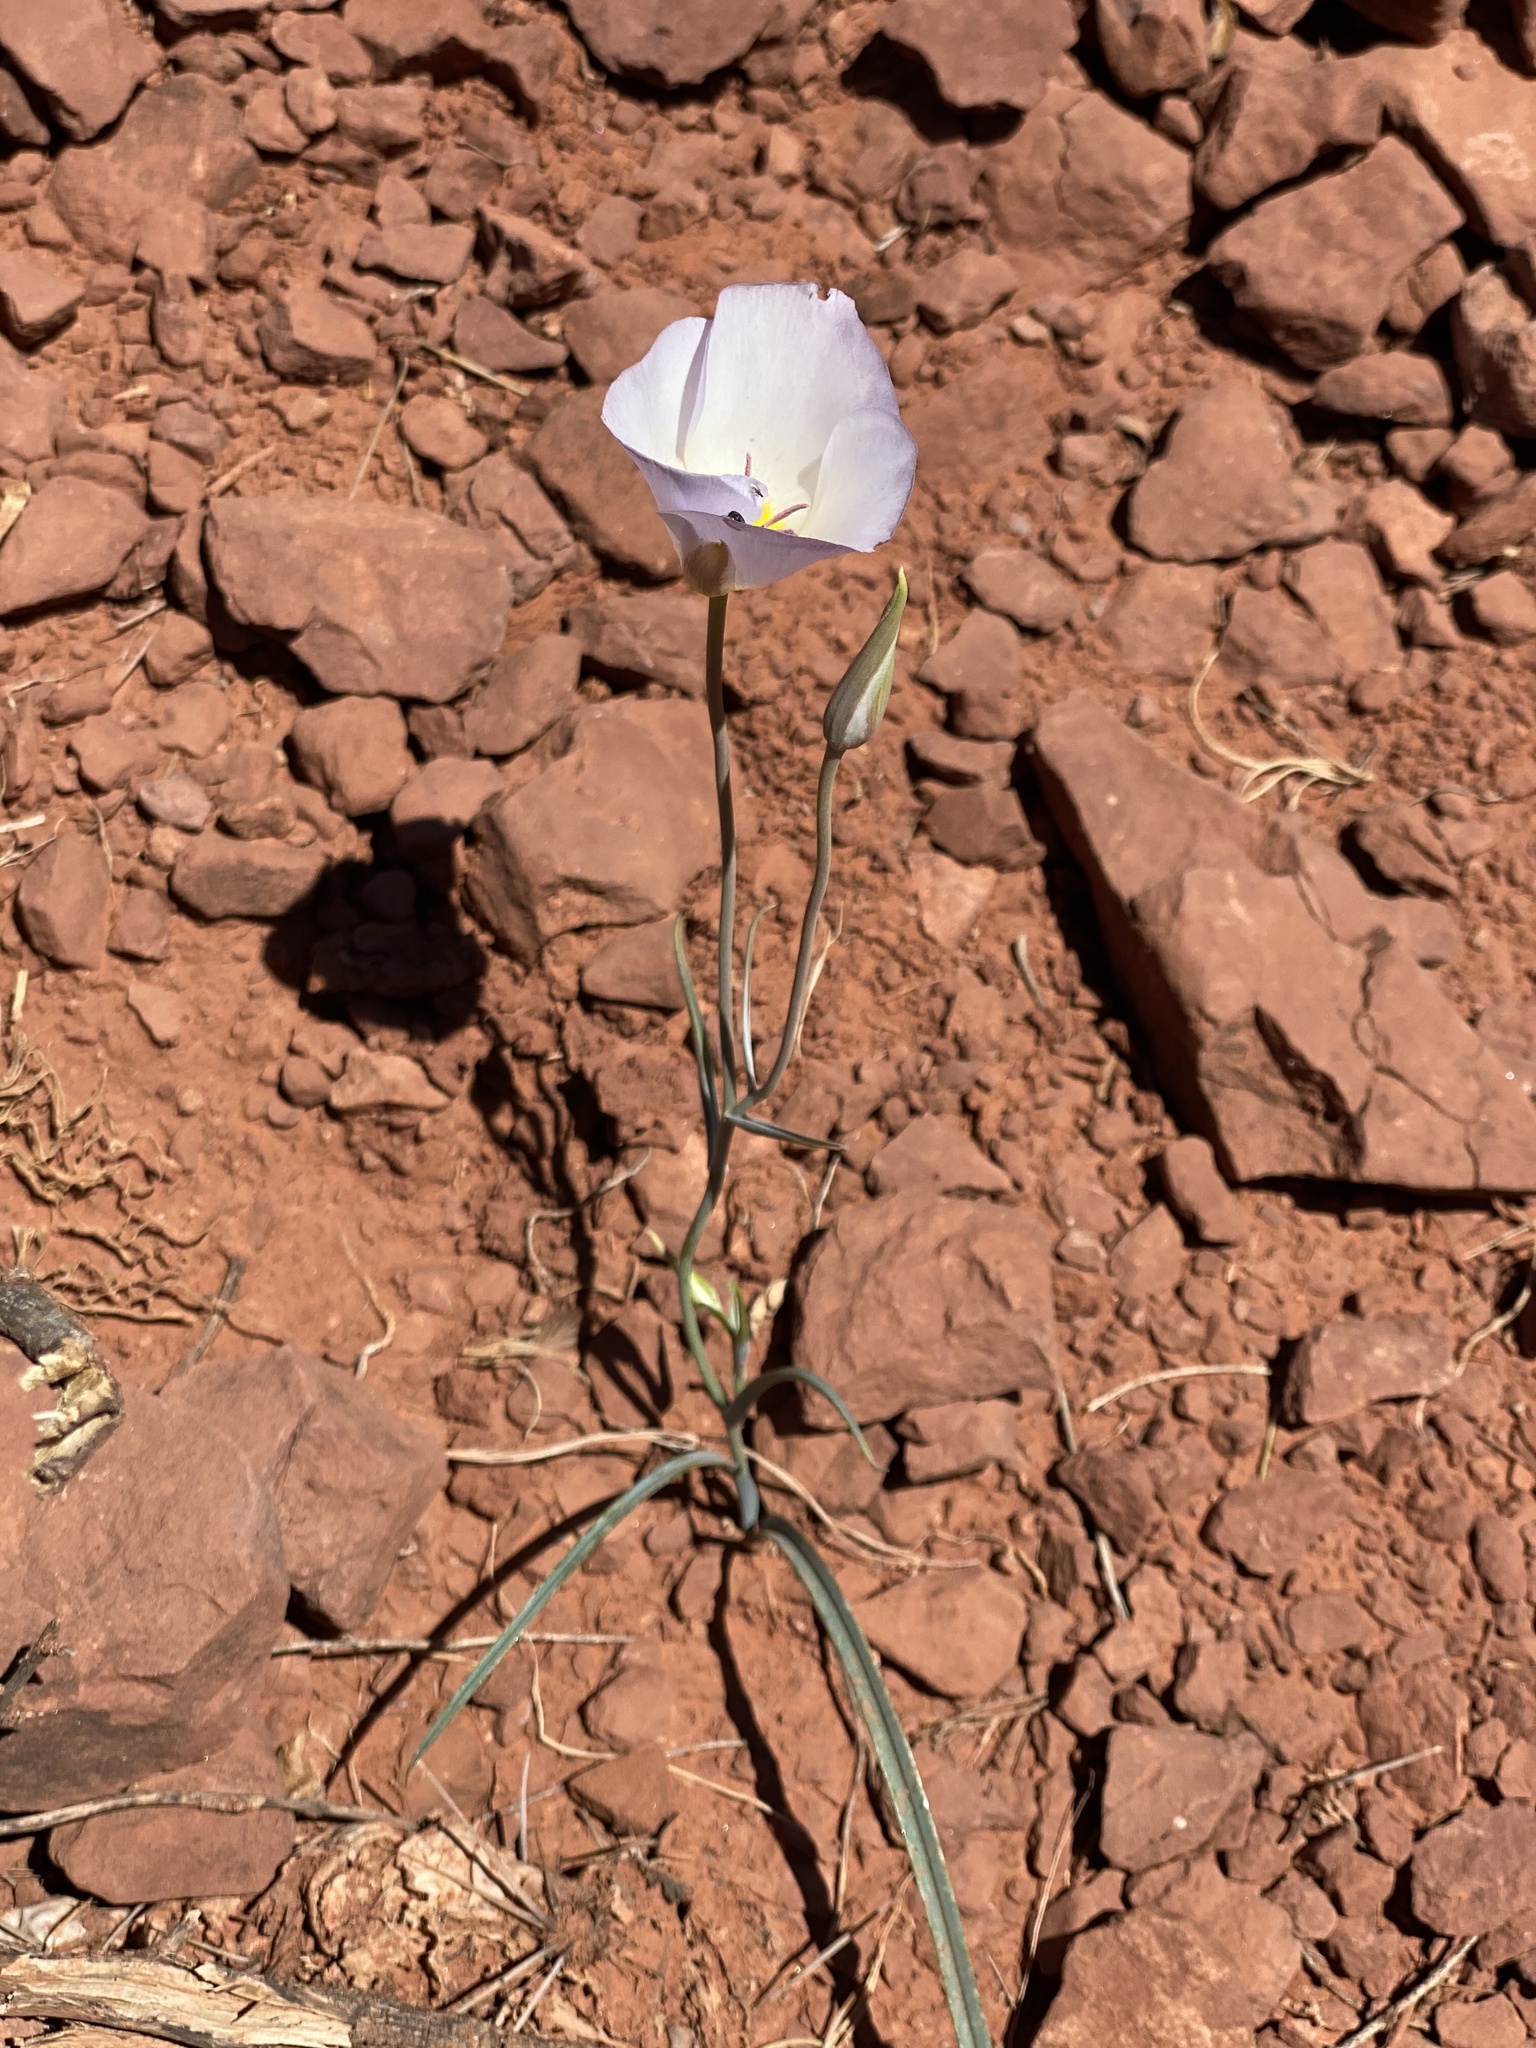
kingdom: Plantae
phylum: Tracheophyta
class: Liliopsida
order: Liliales
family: Liliaceae
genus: Calochortus
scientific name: Calochortus flexuosus
